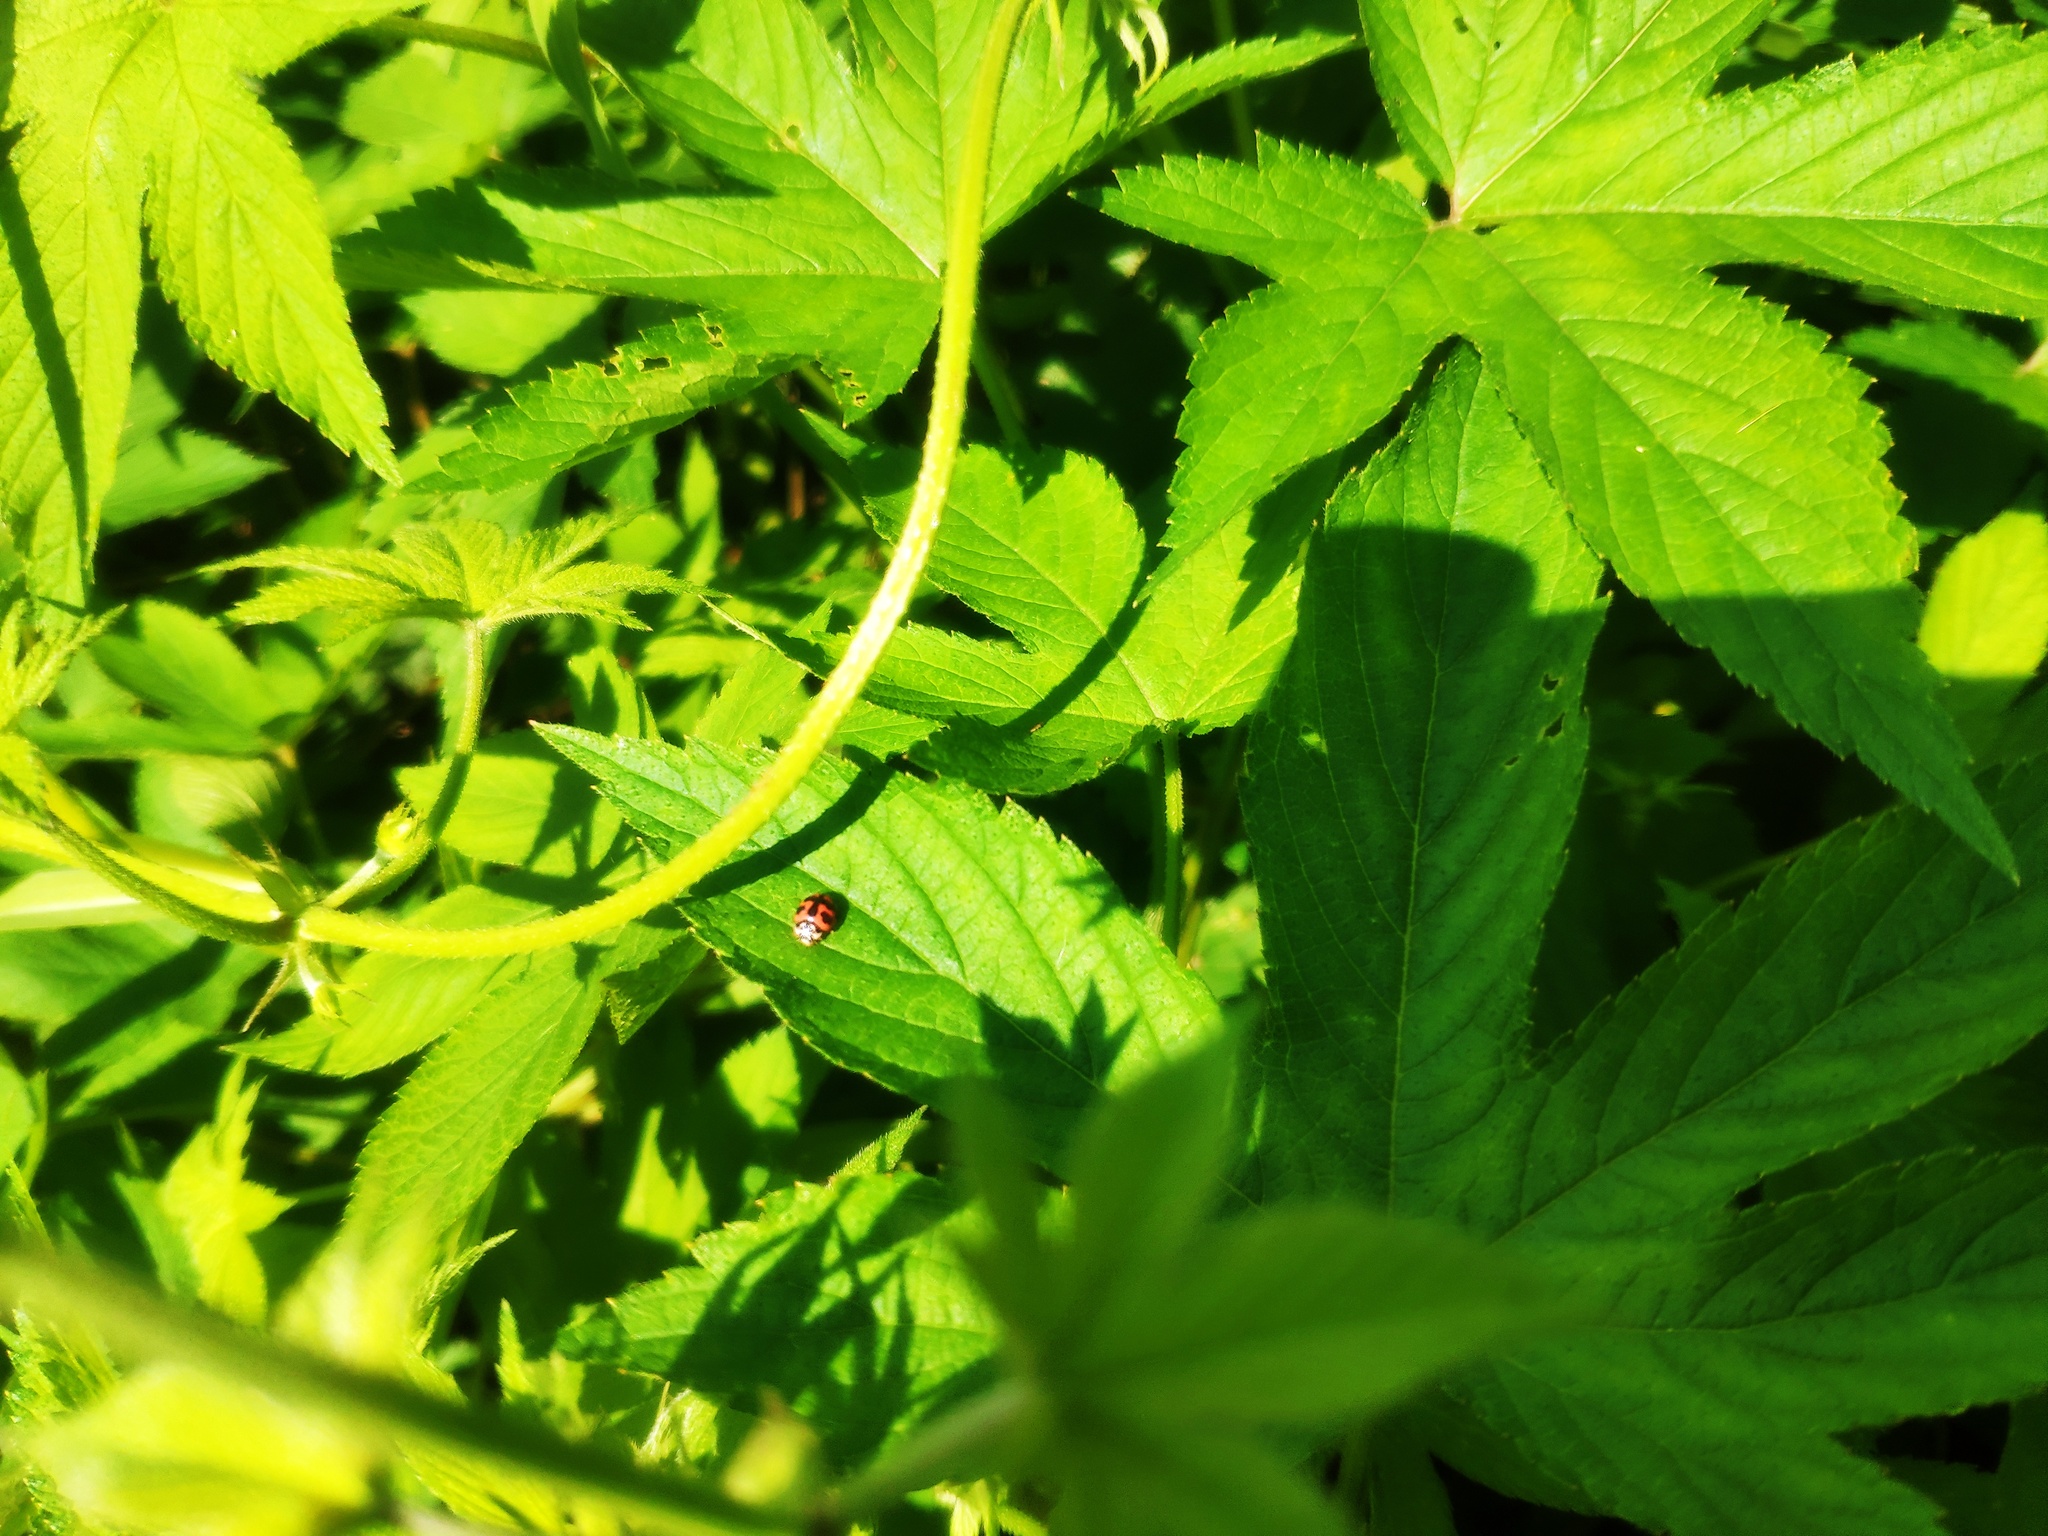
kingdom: Animalia
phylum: Arthropoda
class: Insecta
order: Coleoptera
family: Coccinellidae
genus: Cheilomenes
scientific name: Cheilomenes sexmaculata
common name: Ladybird beetle
